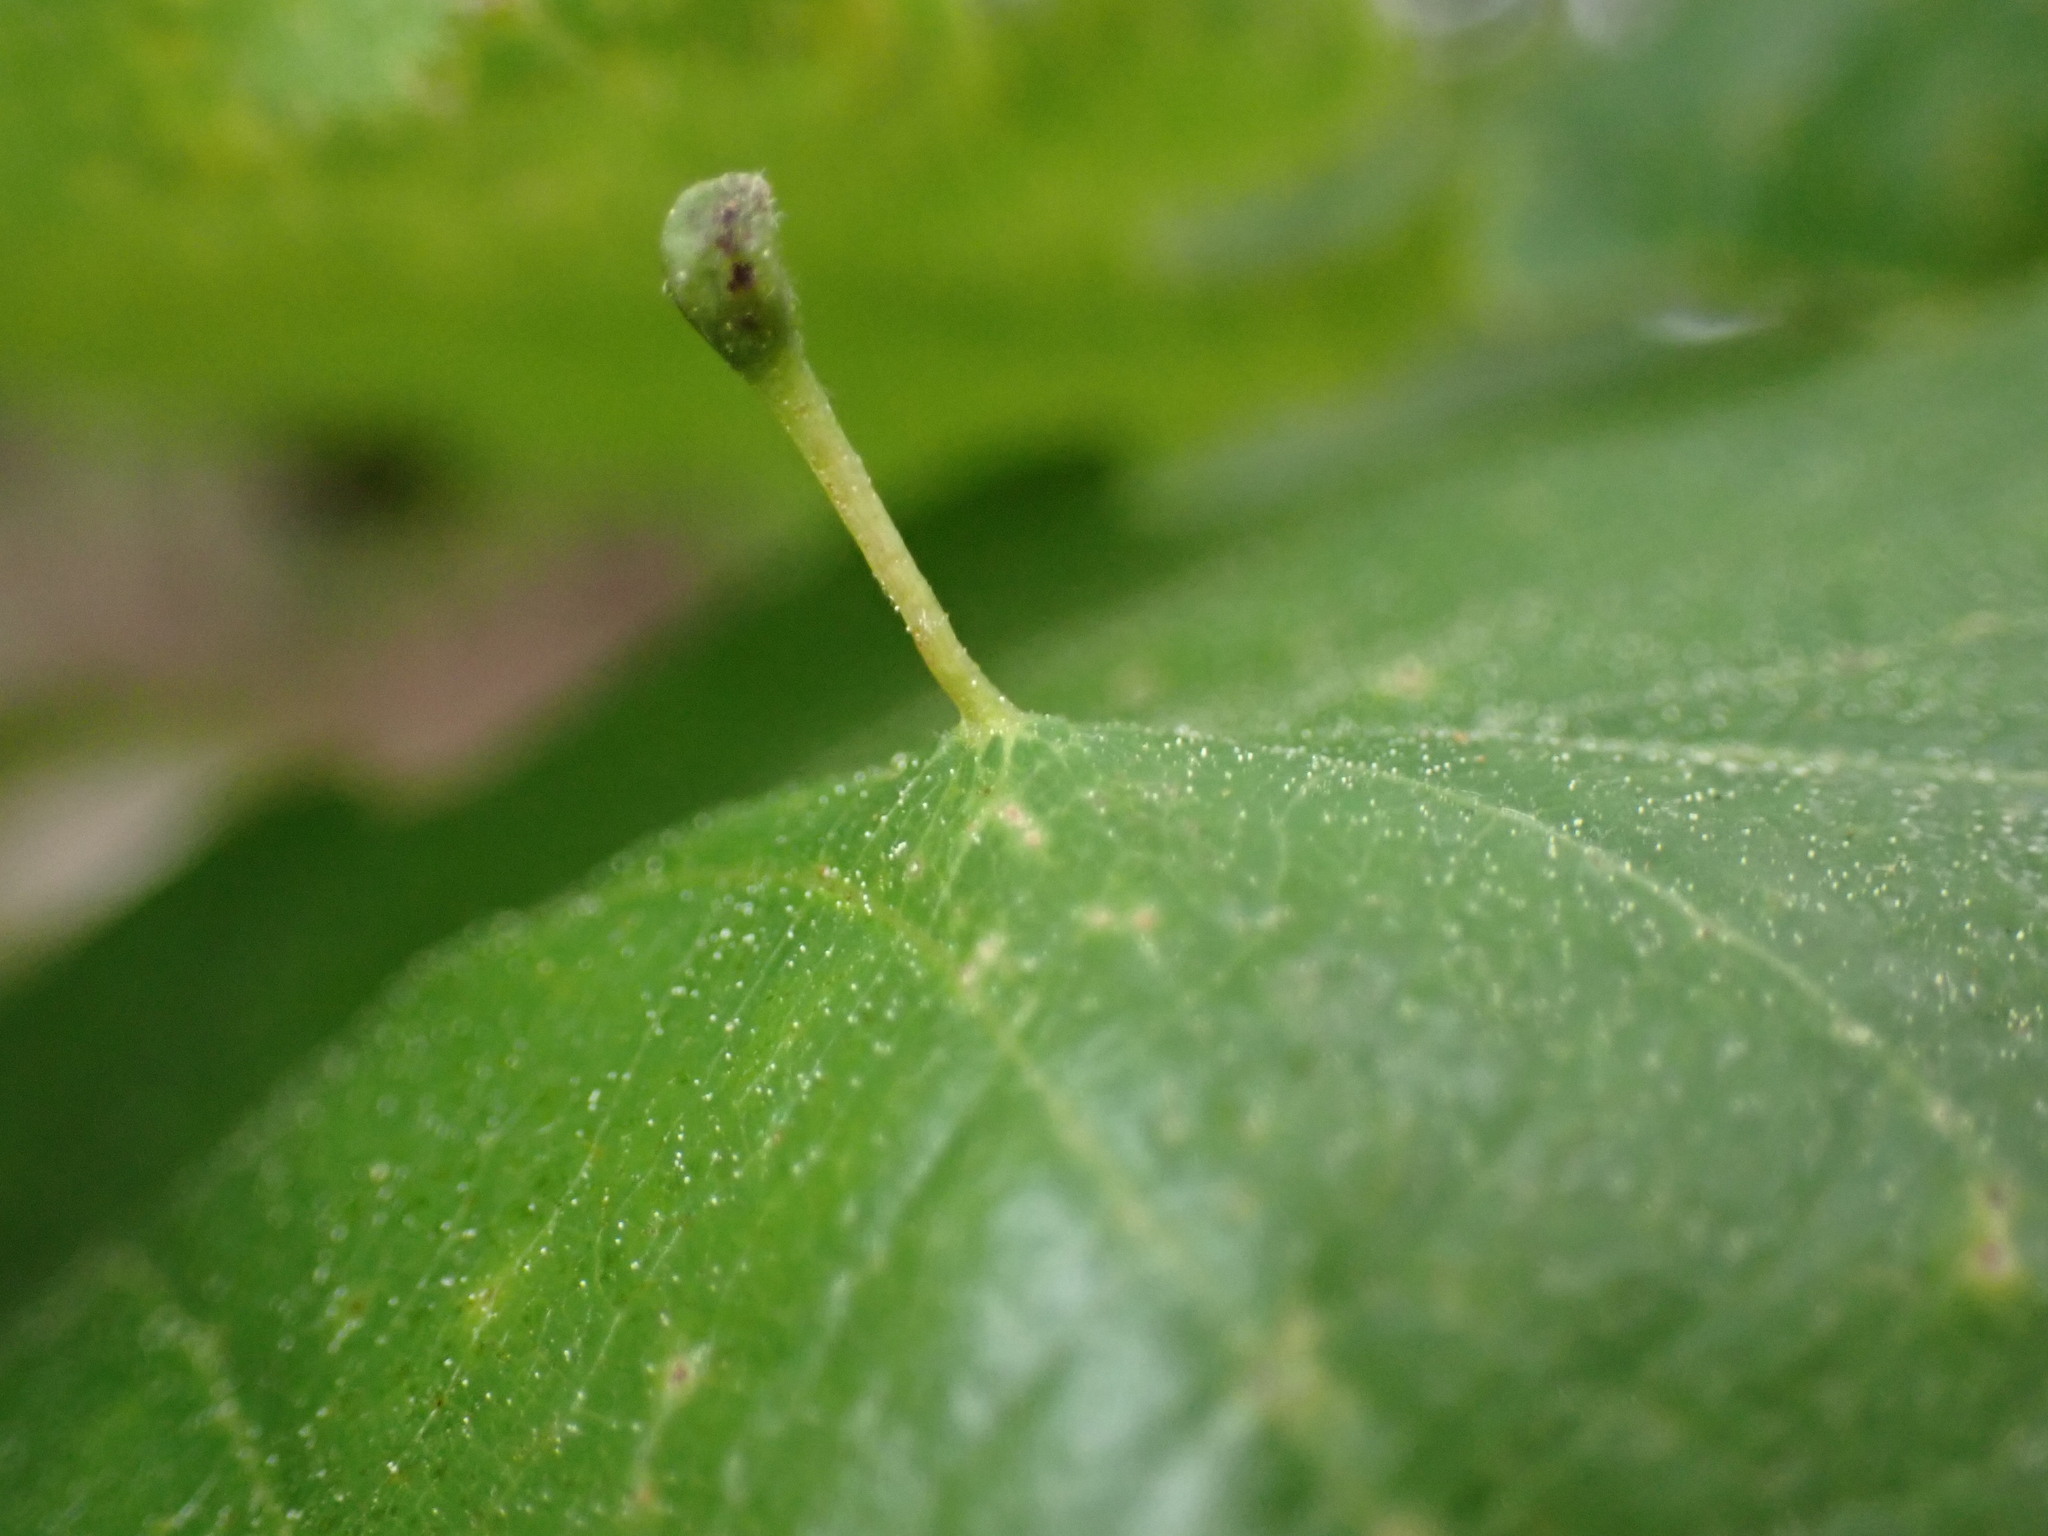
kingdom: Animalia
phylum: Arthropoda
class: Insecta
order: Hymenoptera
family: Cynipidae
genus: Andricus
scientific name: Andricus
